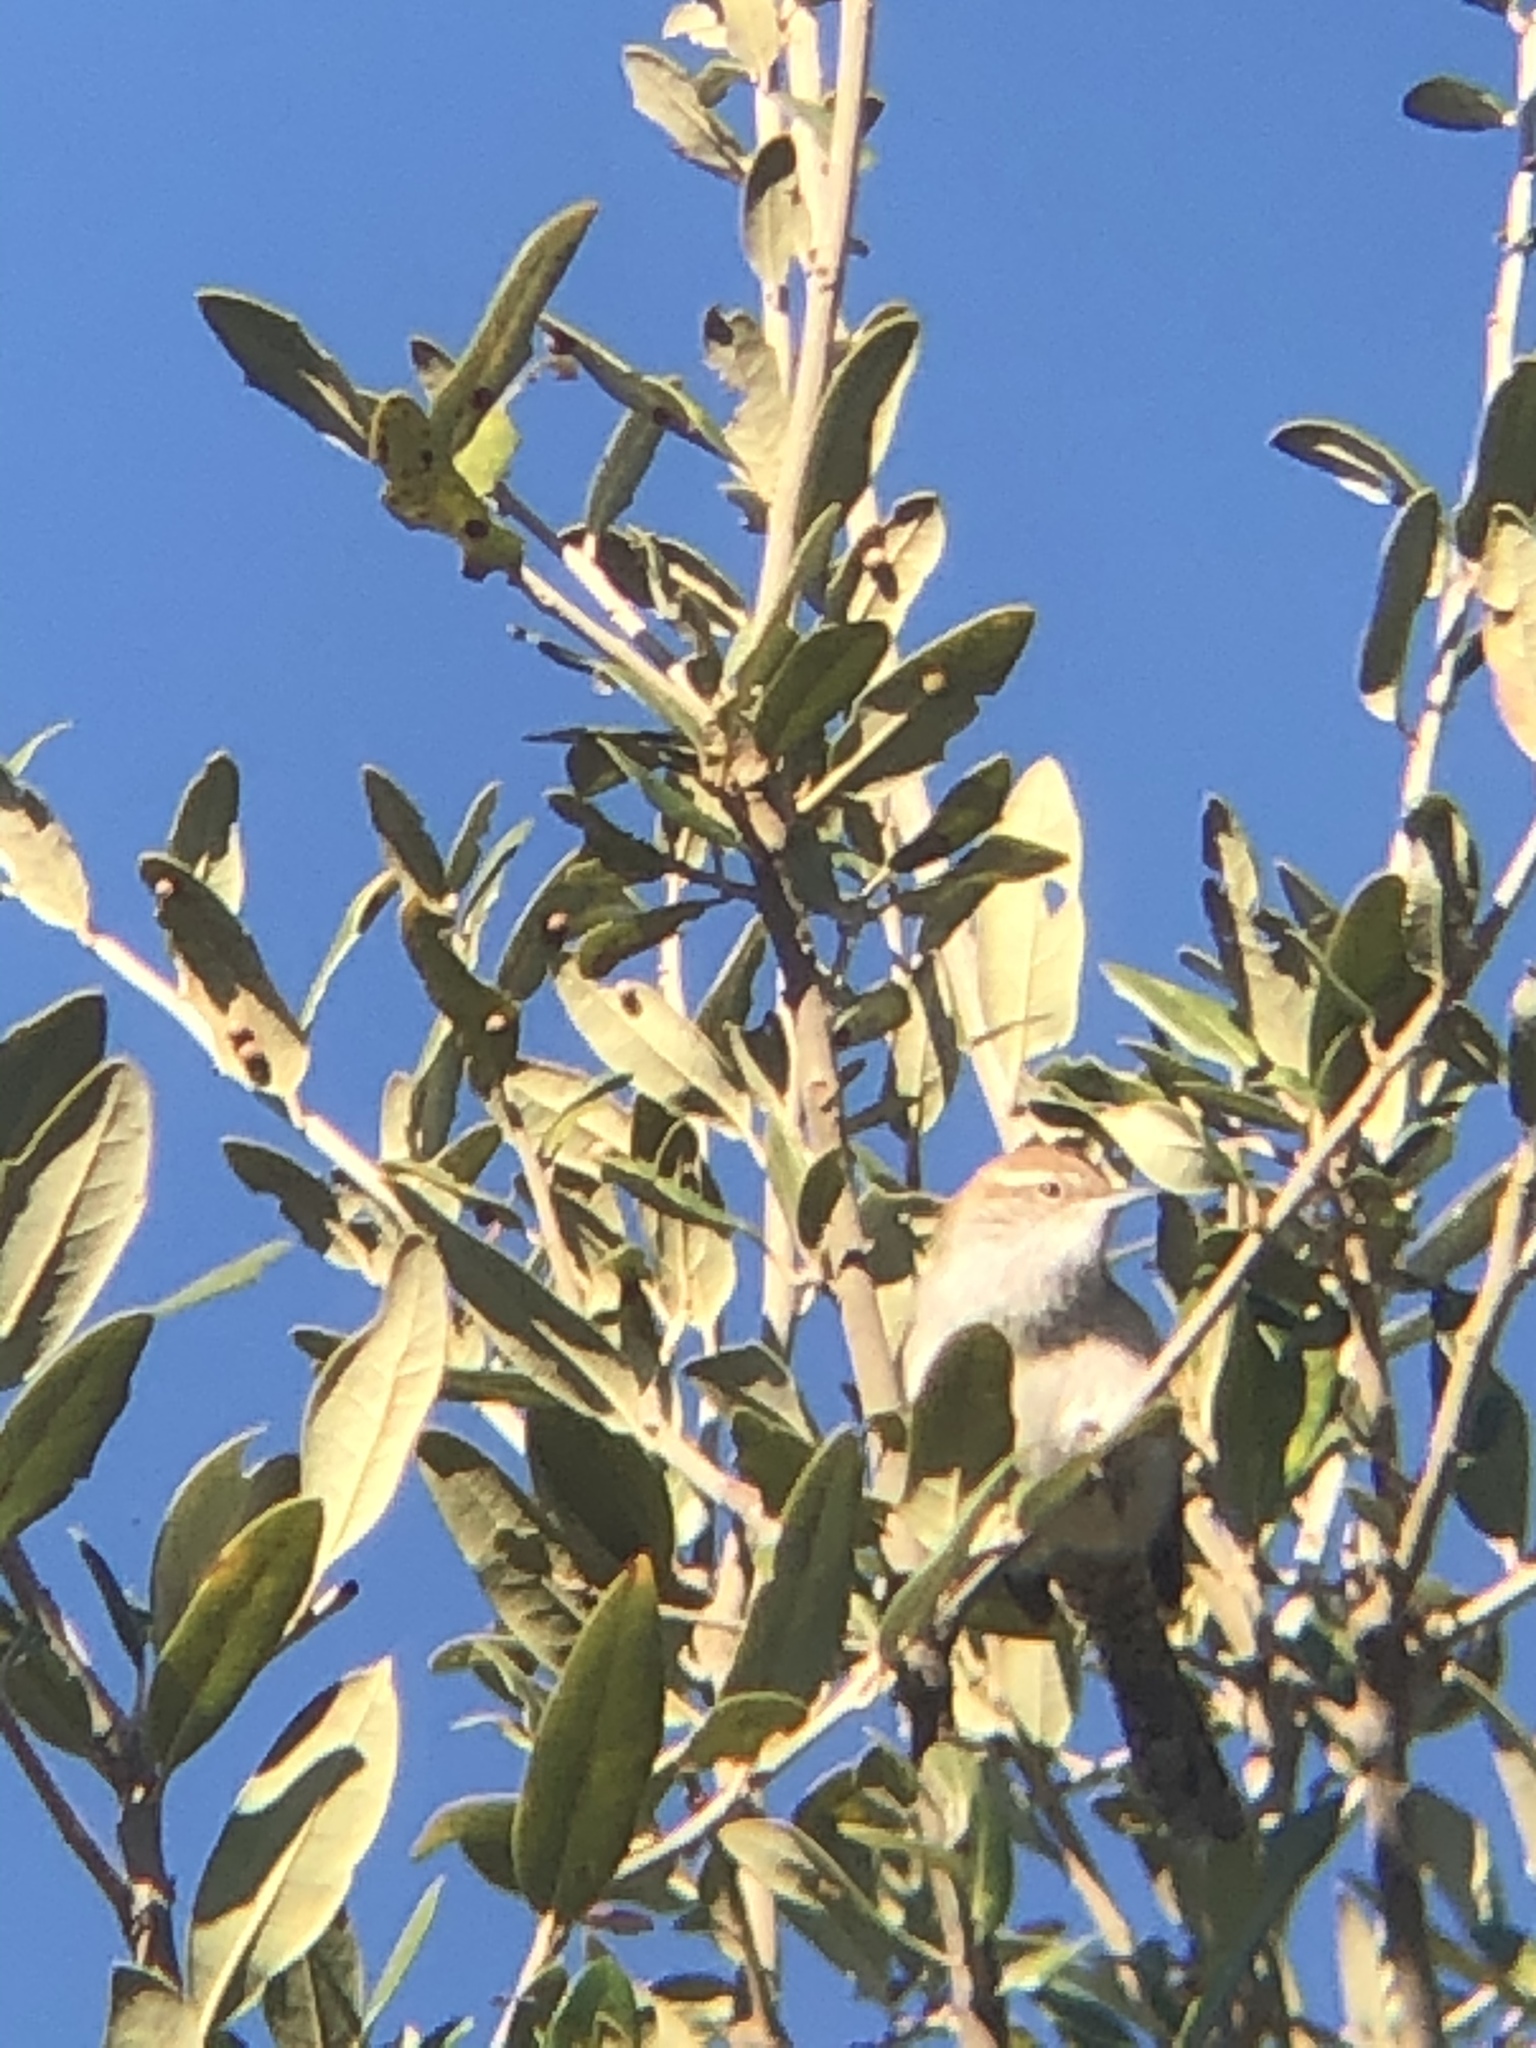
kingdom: Animalia
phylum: Chordata
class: Aves
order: Passeriformes
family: Troglodytidae
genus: Thryomanes
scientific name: Thryomanes bewickii
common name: Bewick's wren
